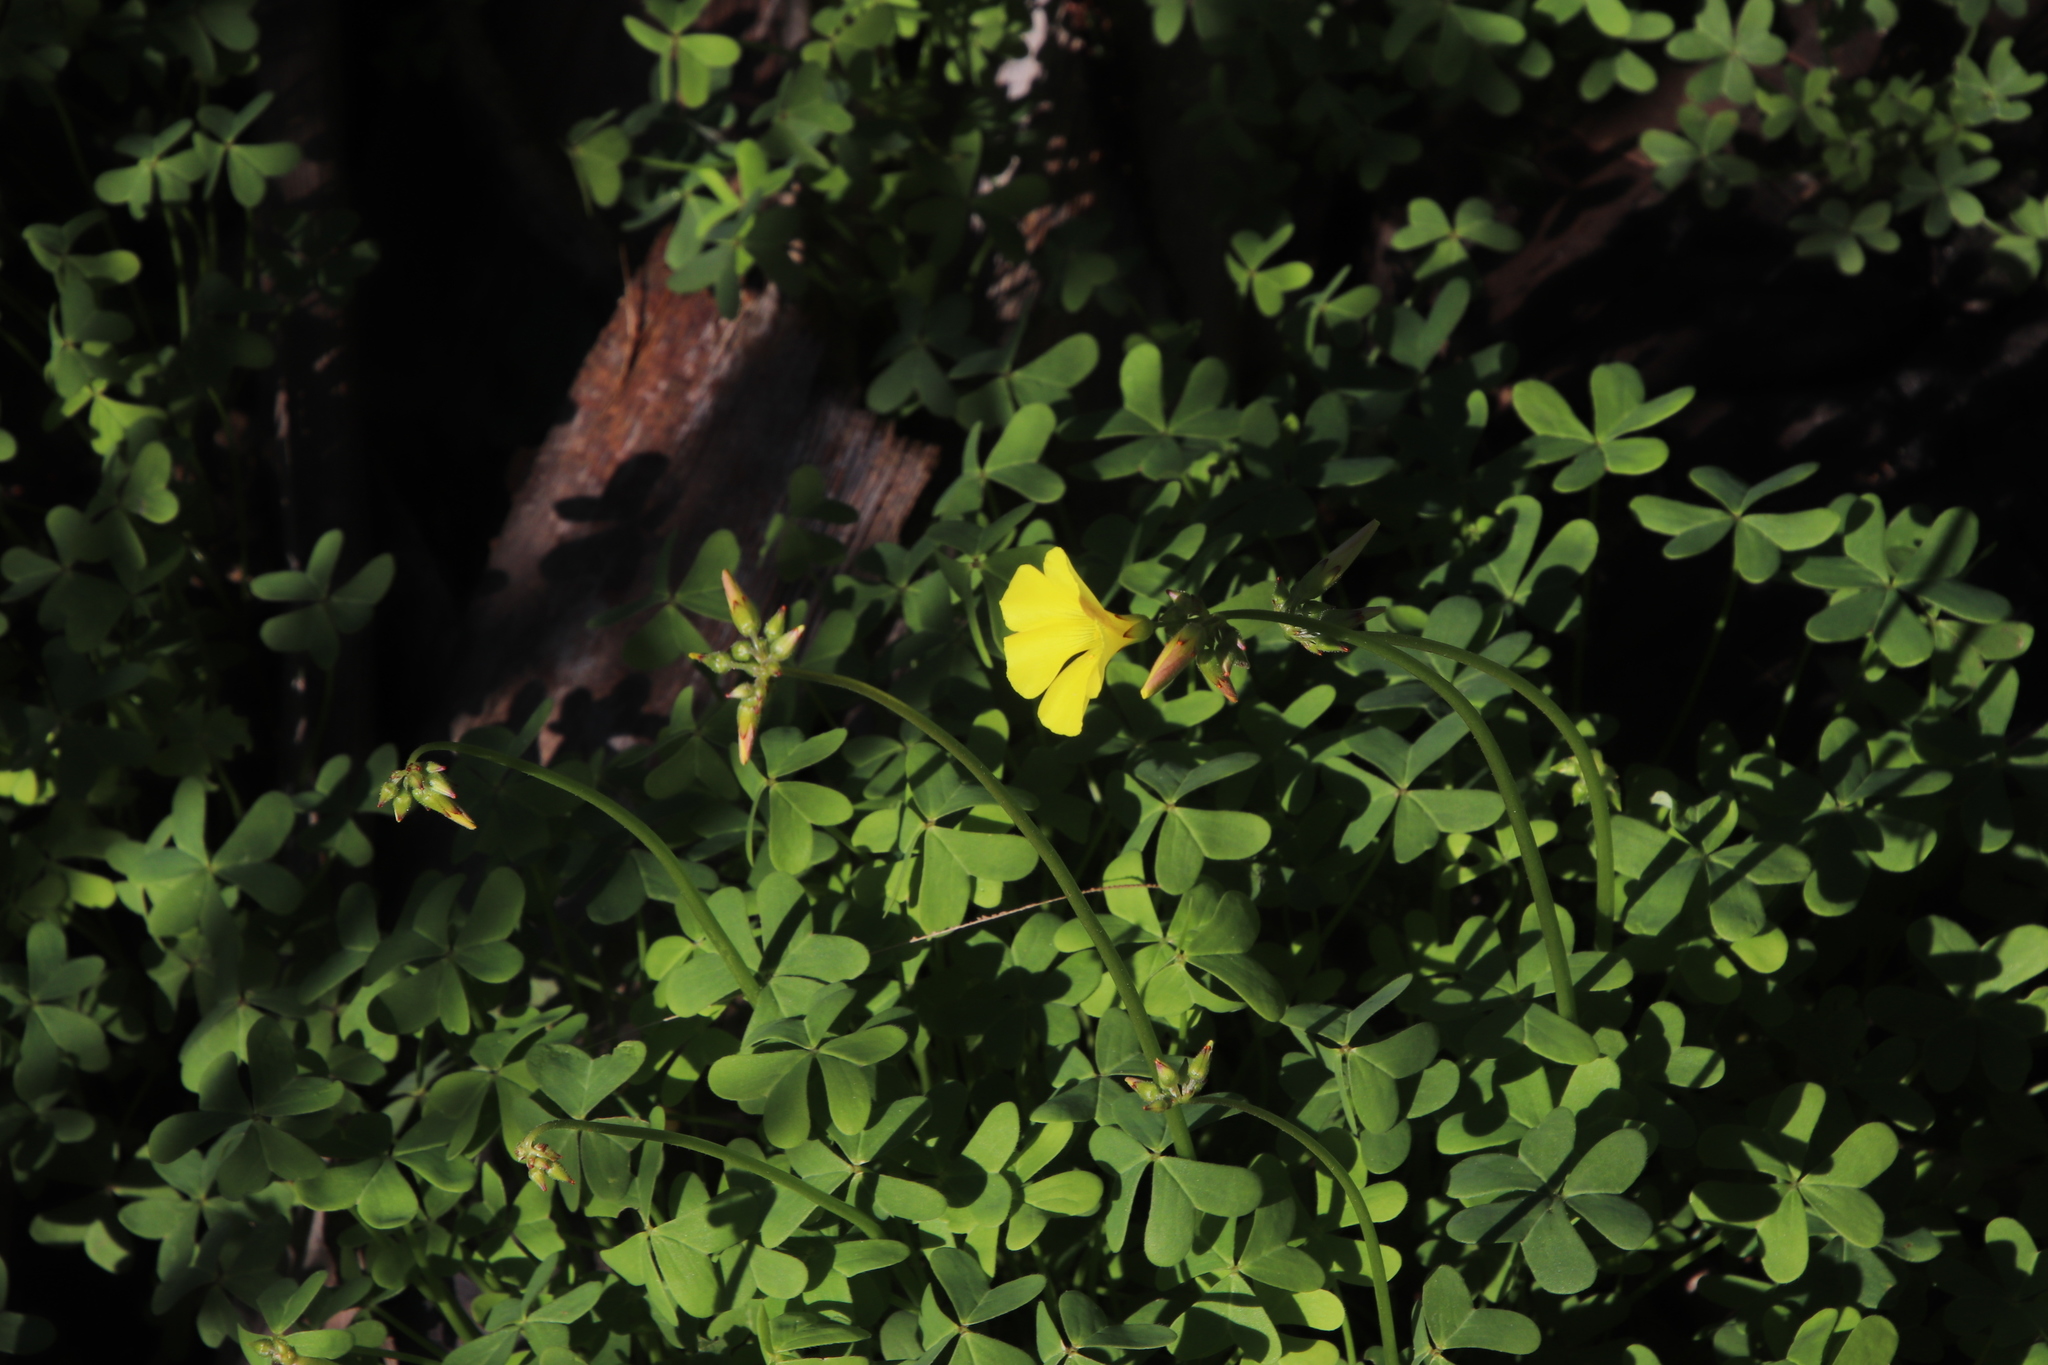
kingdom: Plantae
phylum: Tracheophyta
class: Magnoliopsida
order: Oxalidales
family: Oxalidaceae
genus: Oxalis
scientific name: Oxalis pes-caprae
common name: Bermuda-buttercup
